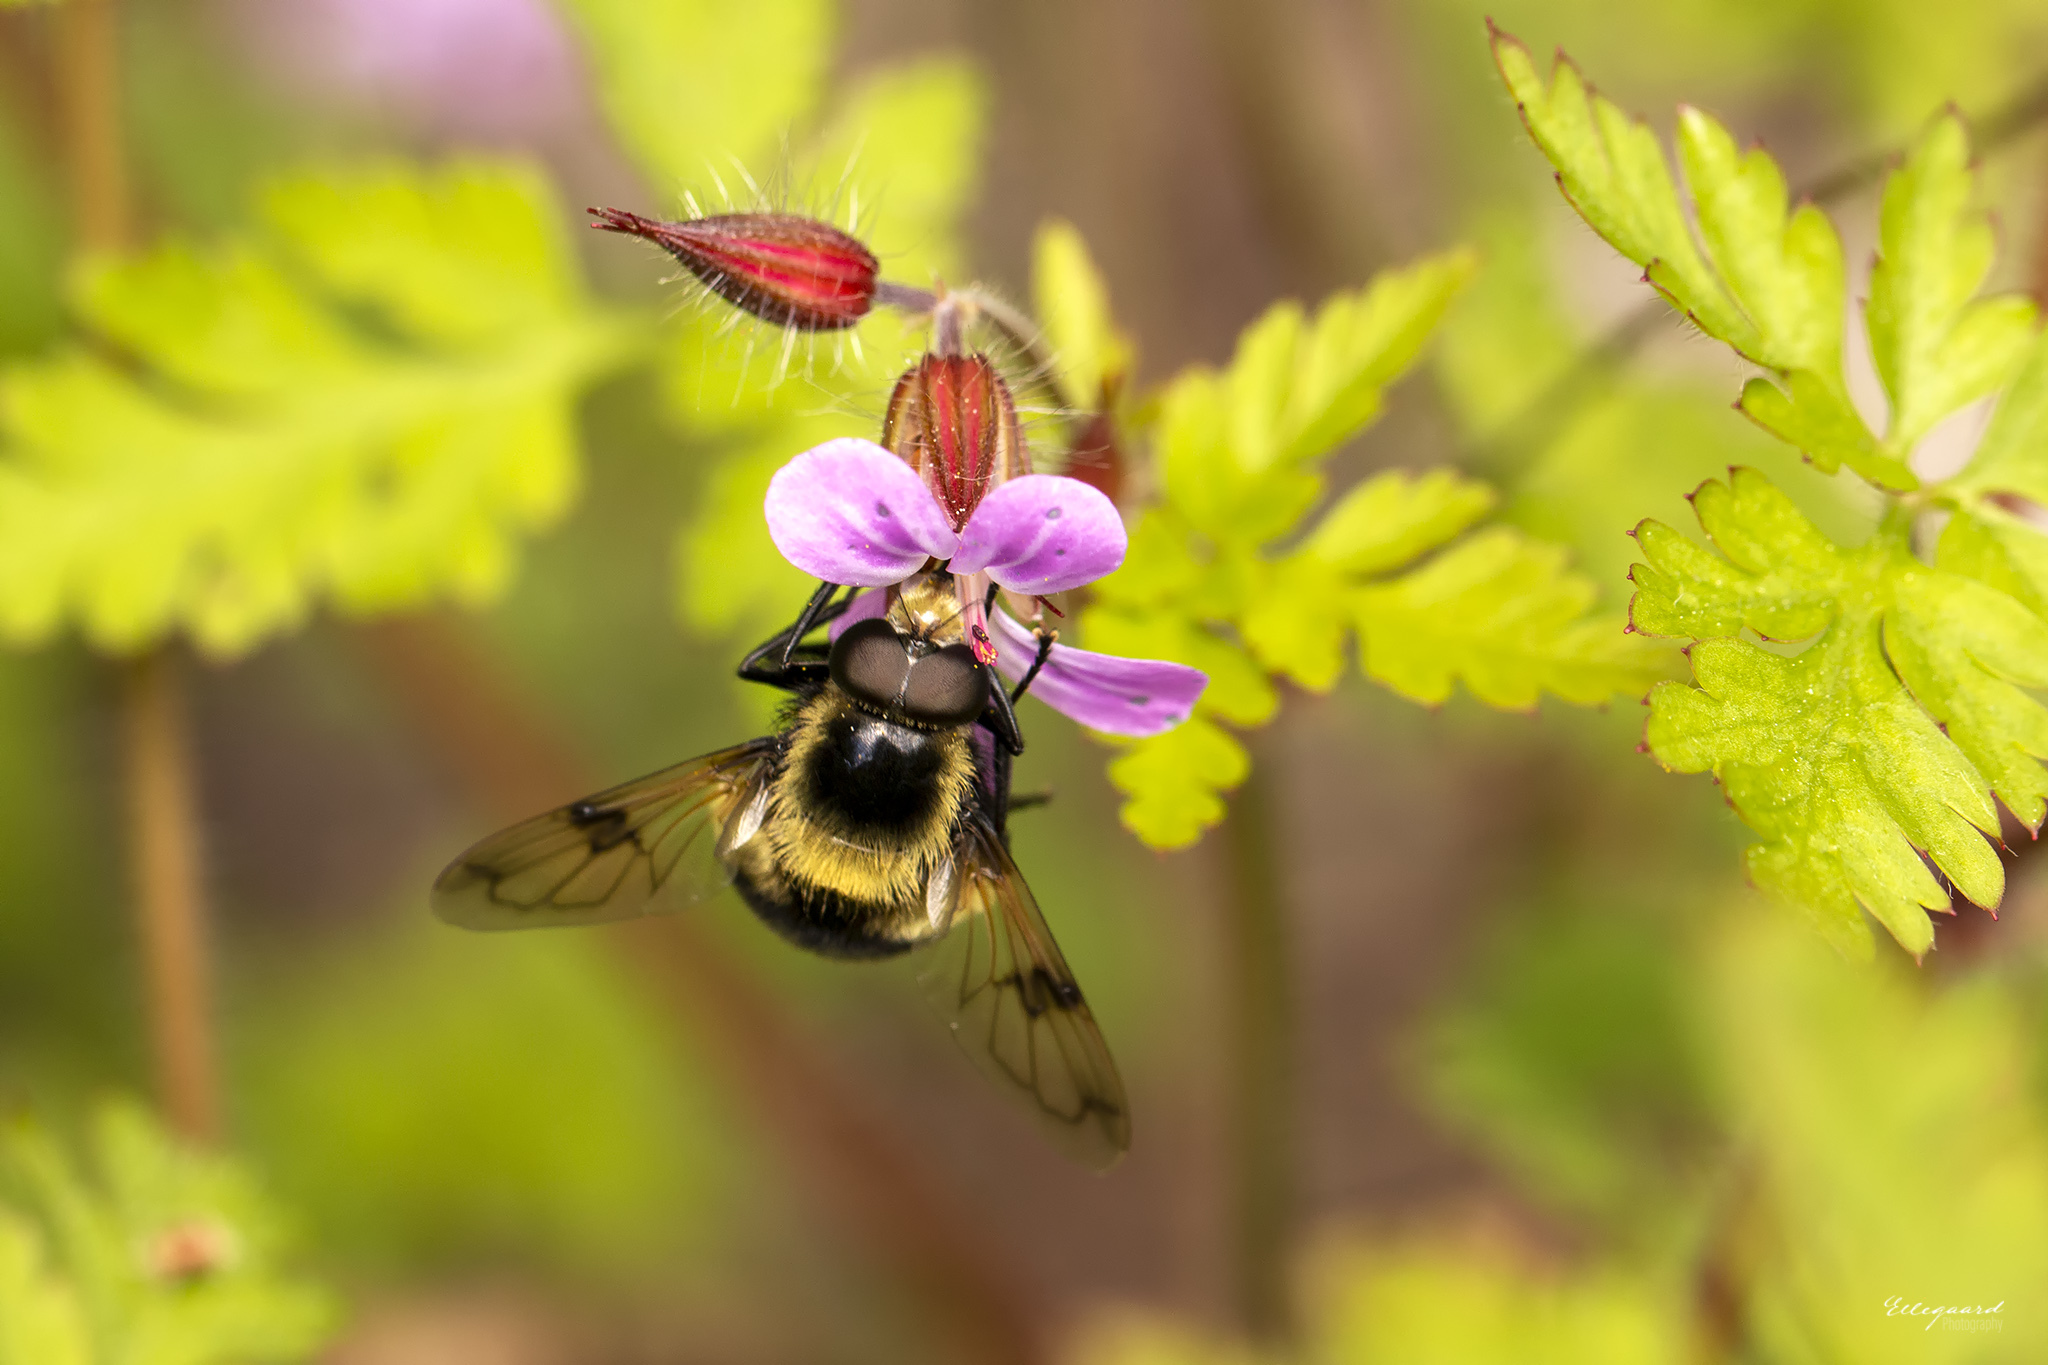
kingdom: Animalia
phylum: Arthropoda
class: Insecta
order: Diptera
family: Syrphidae
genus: Volucella
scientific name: Volucella bombylans
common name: Bumble bee hover fly
